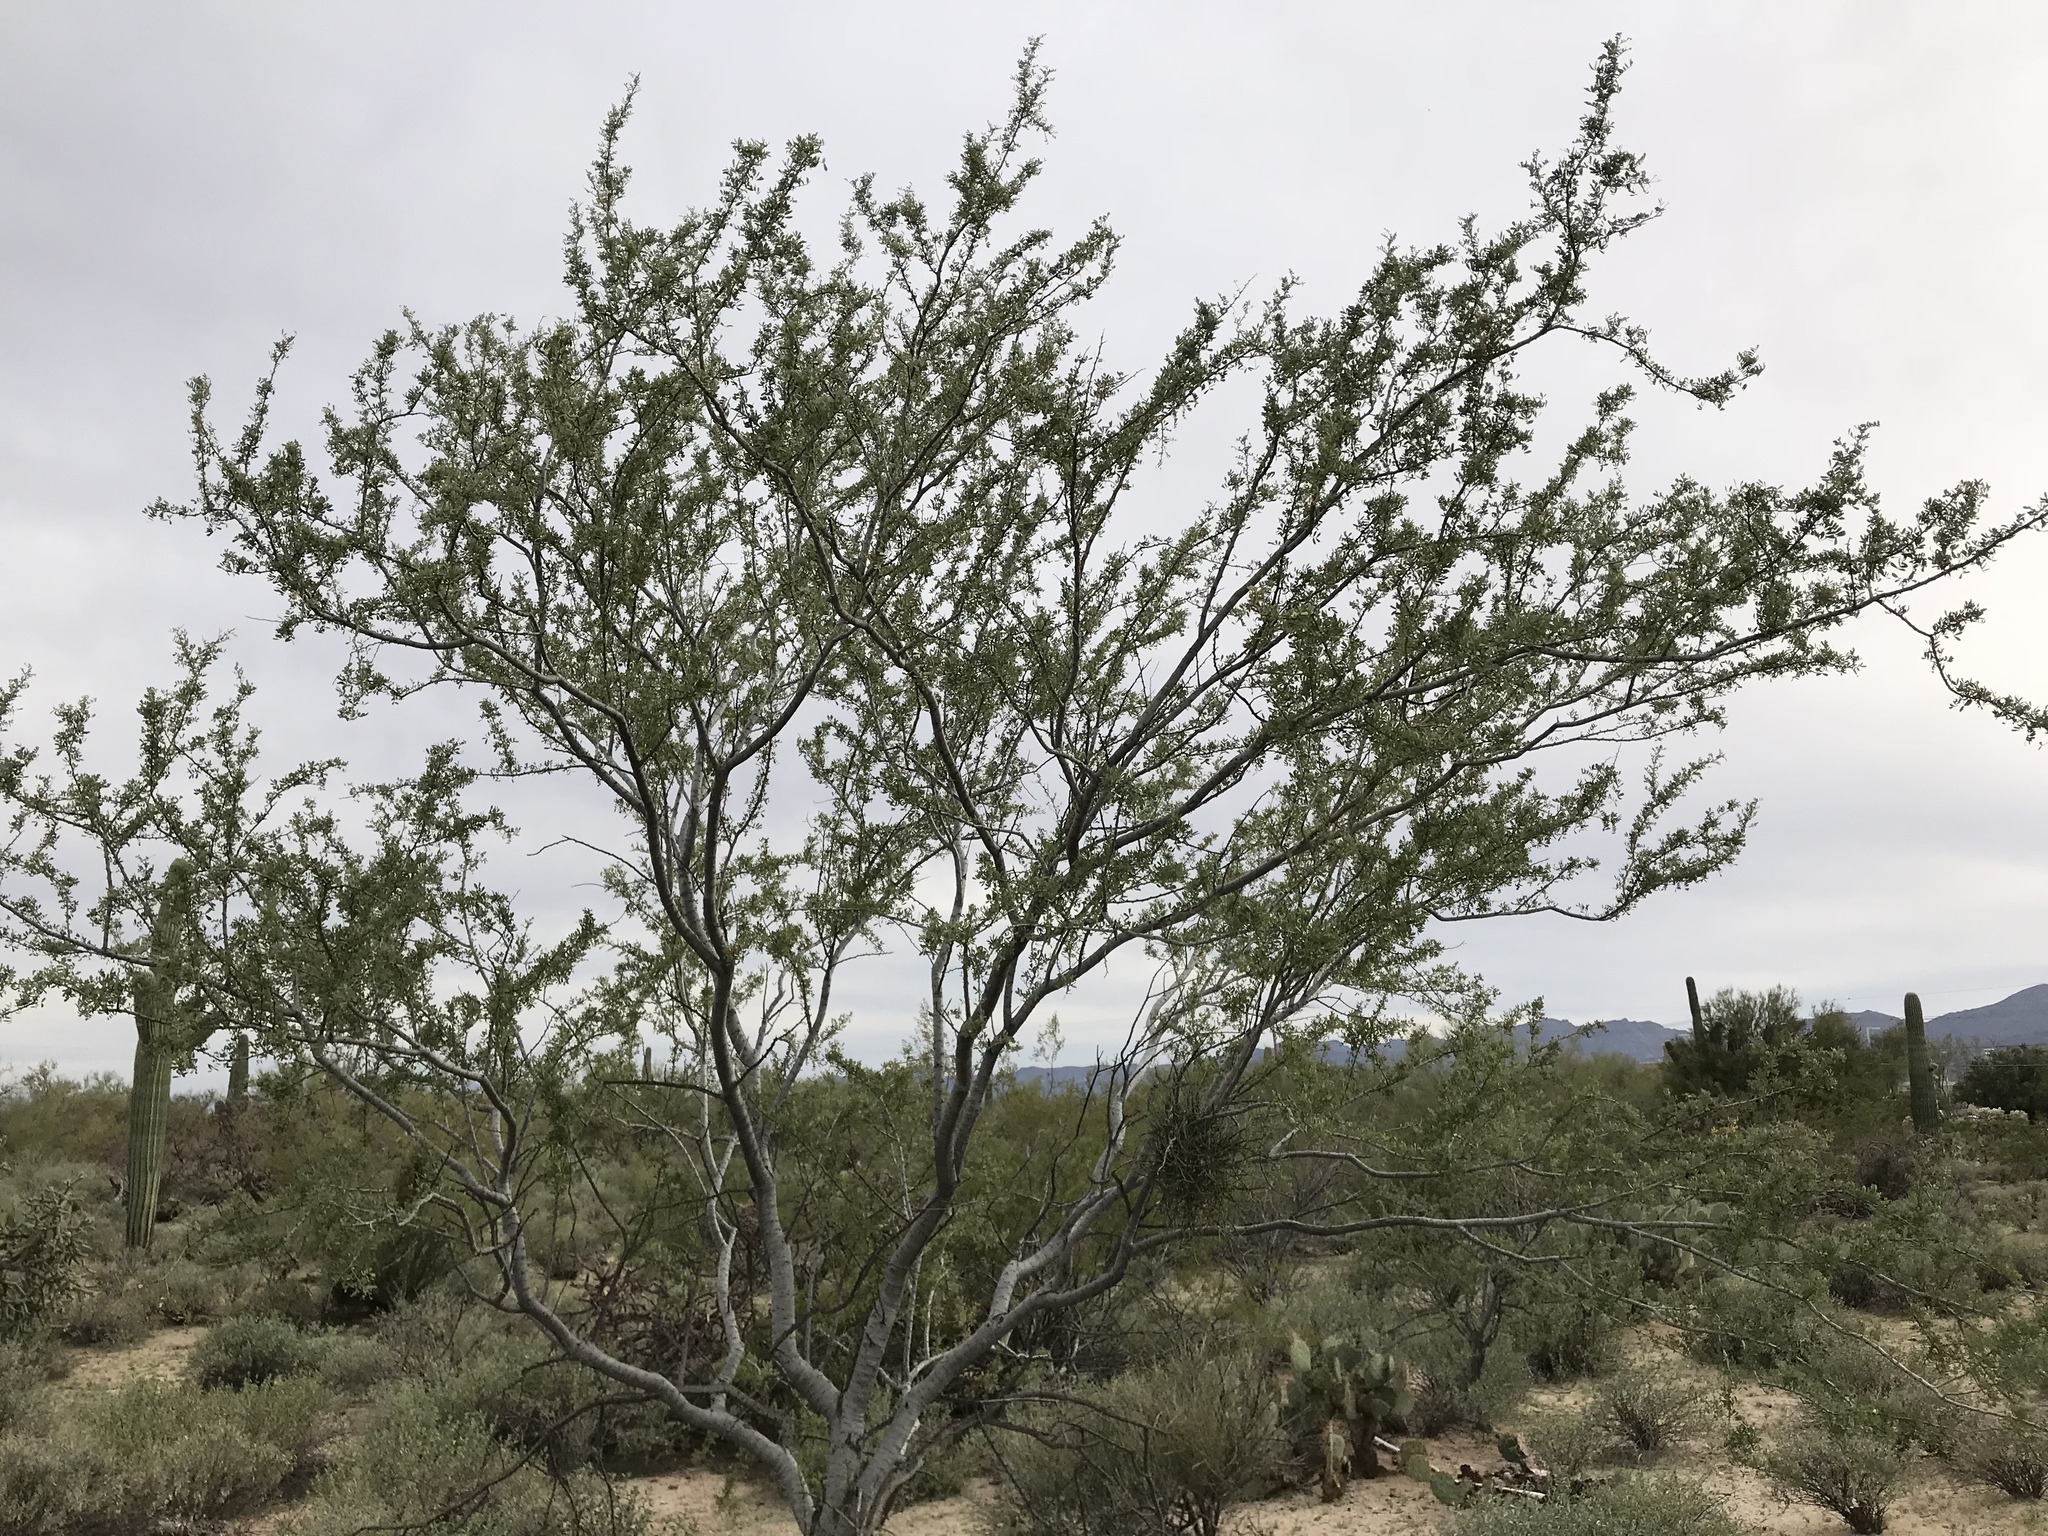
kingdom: Plantae
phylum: Tracheophyta
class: Magnoliopsida
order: Fabales
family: Fabaceae
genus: Olneya
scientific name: Olneya tesota
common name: Desert ironwood
